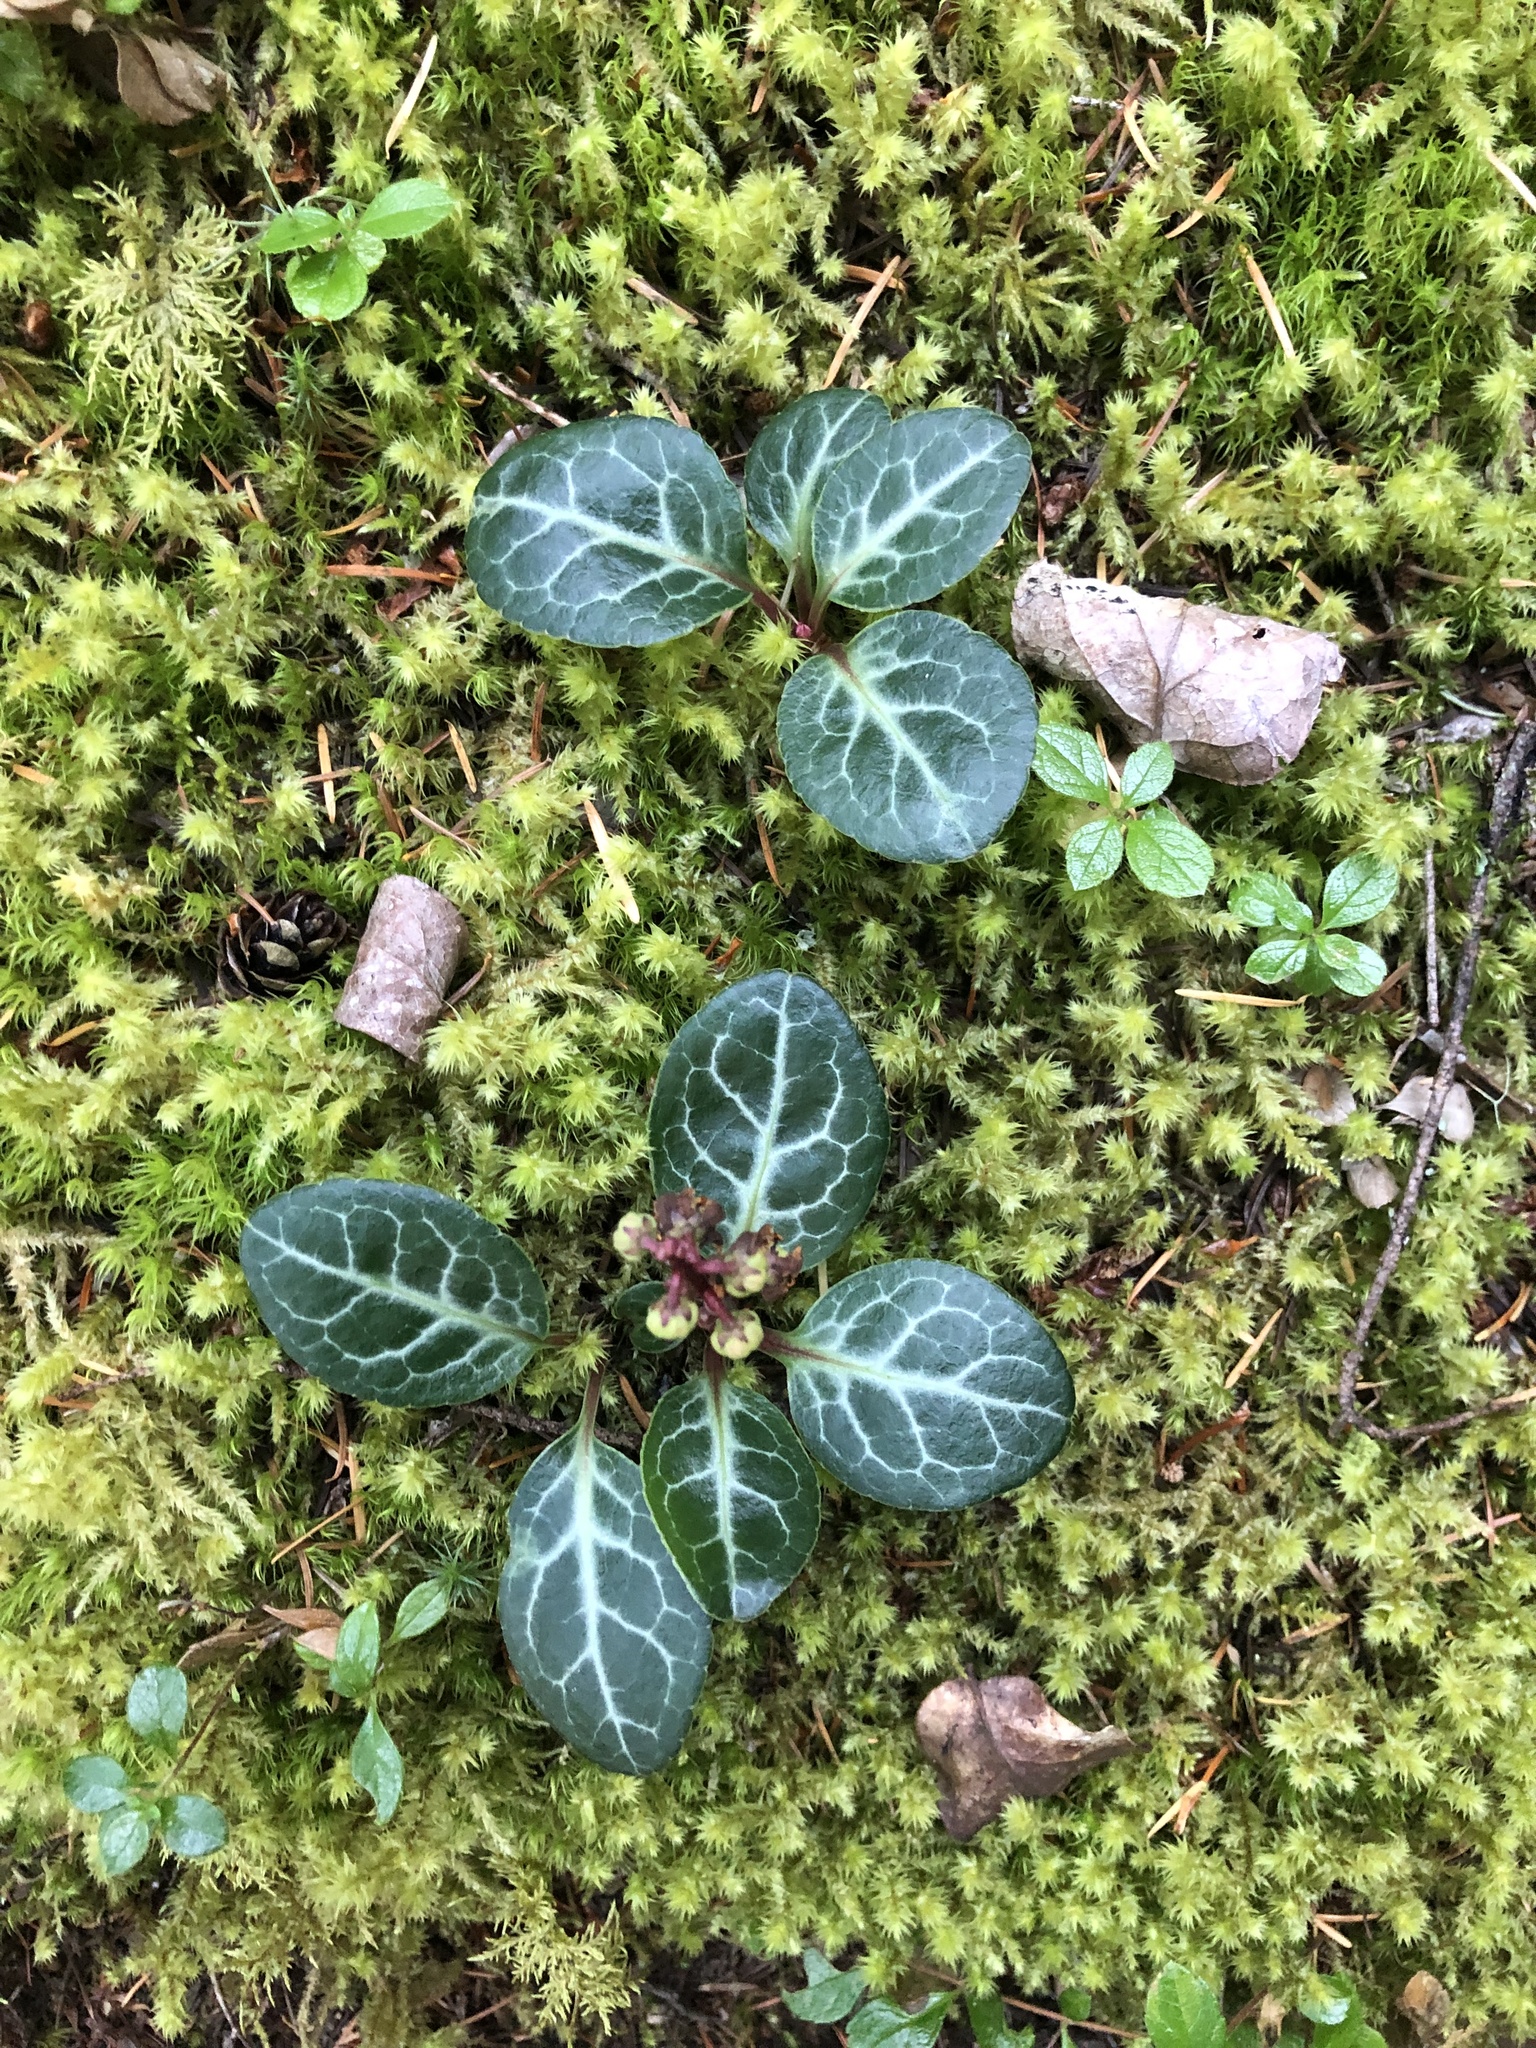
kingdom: Plantae
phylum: Tracheophyta
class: Magnoliopsida
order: Ericales
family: Ericaceae
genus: Pyrola
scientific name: Pyrola picta
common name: White-vein wintergreen
